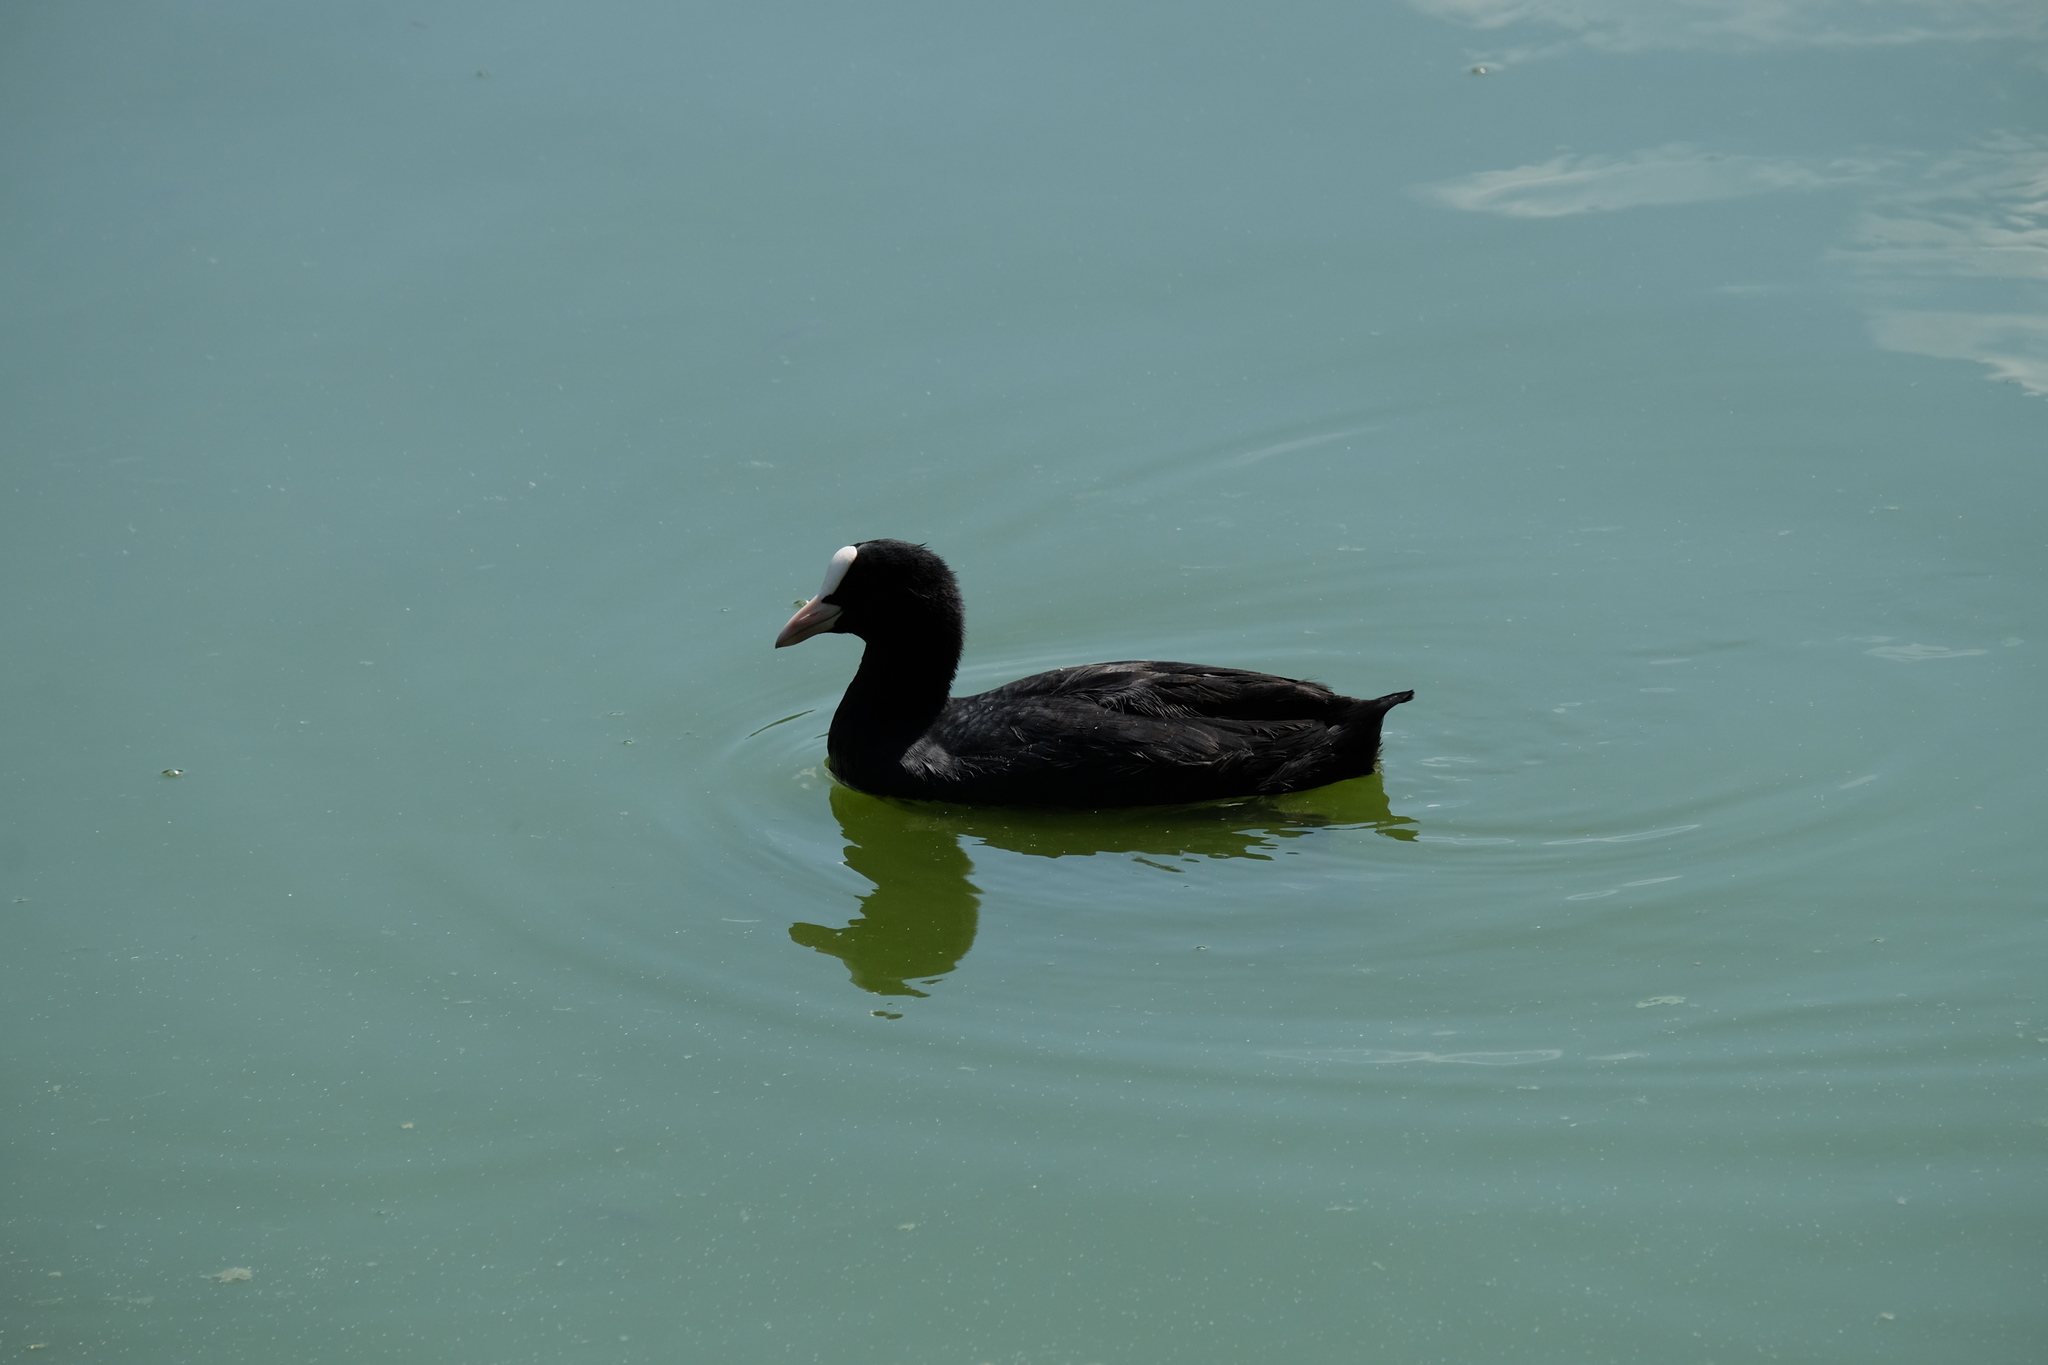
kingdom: Animalia
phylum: Chordata
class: Aves
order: Gruiformes
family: Rallidae
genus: Fulica
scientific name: Fulica atra
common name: Eurasian coot
